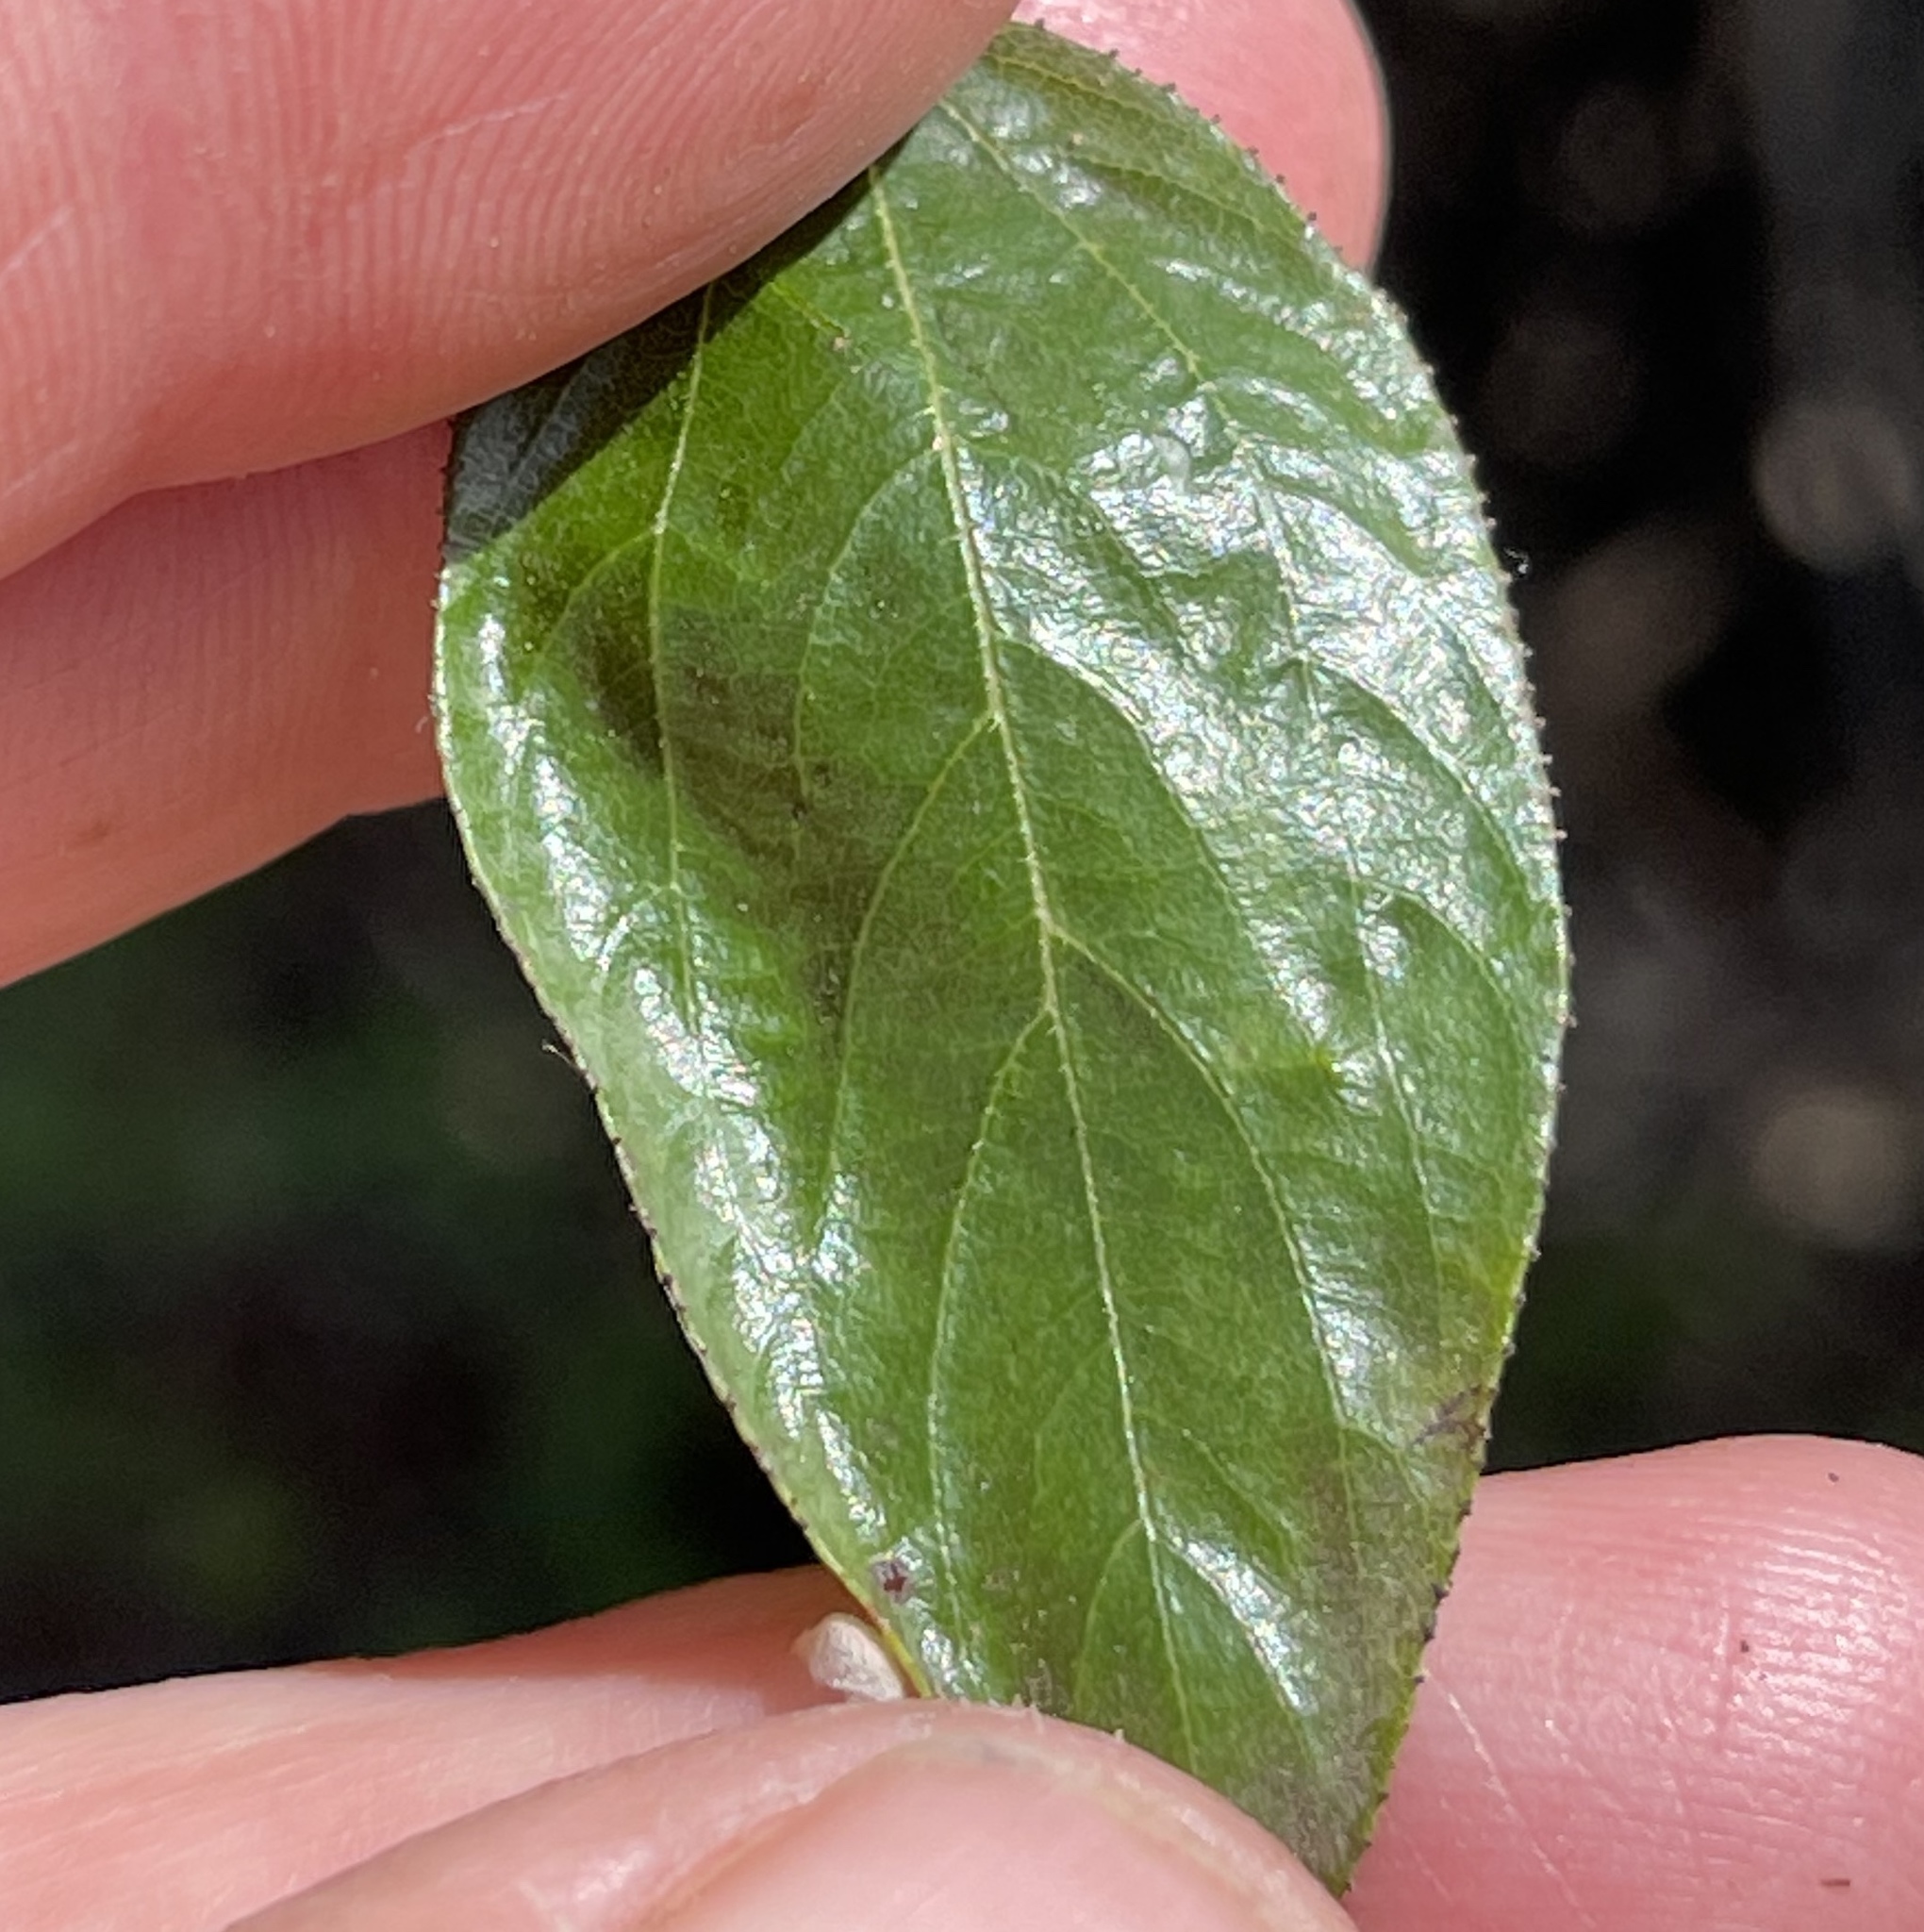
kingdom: Plantae
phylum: Tracheophyta
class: Magnoliopsida
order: Rosales
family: Rhamnaceae
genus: Ceanothus
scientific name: Ceanothus oliganthus
